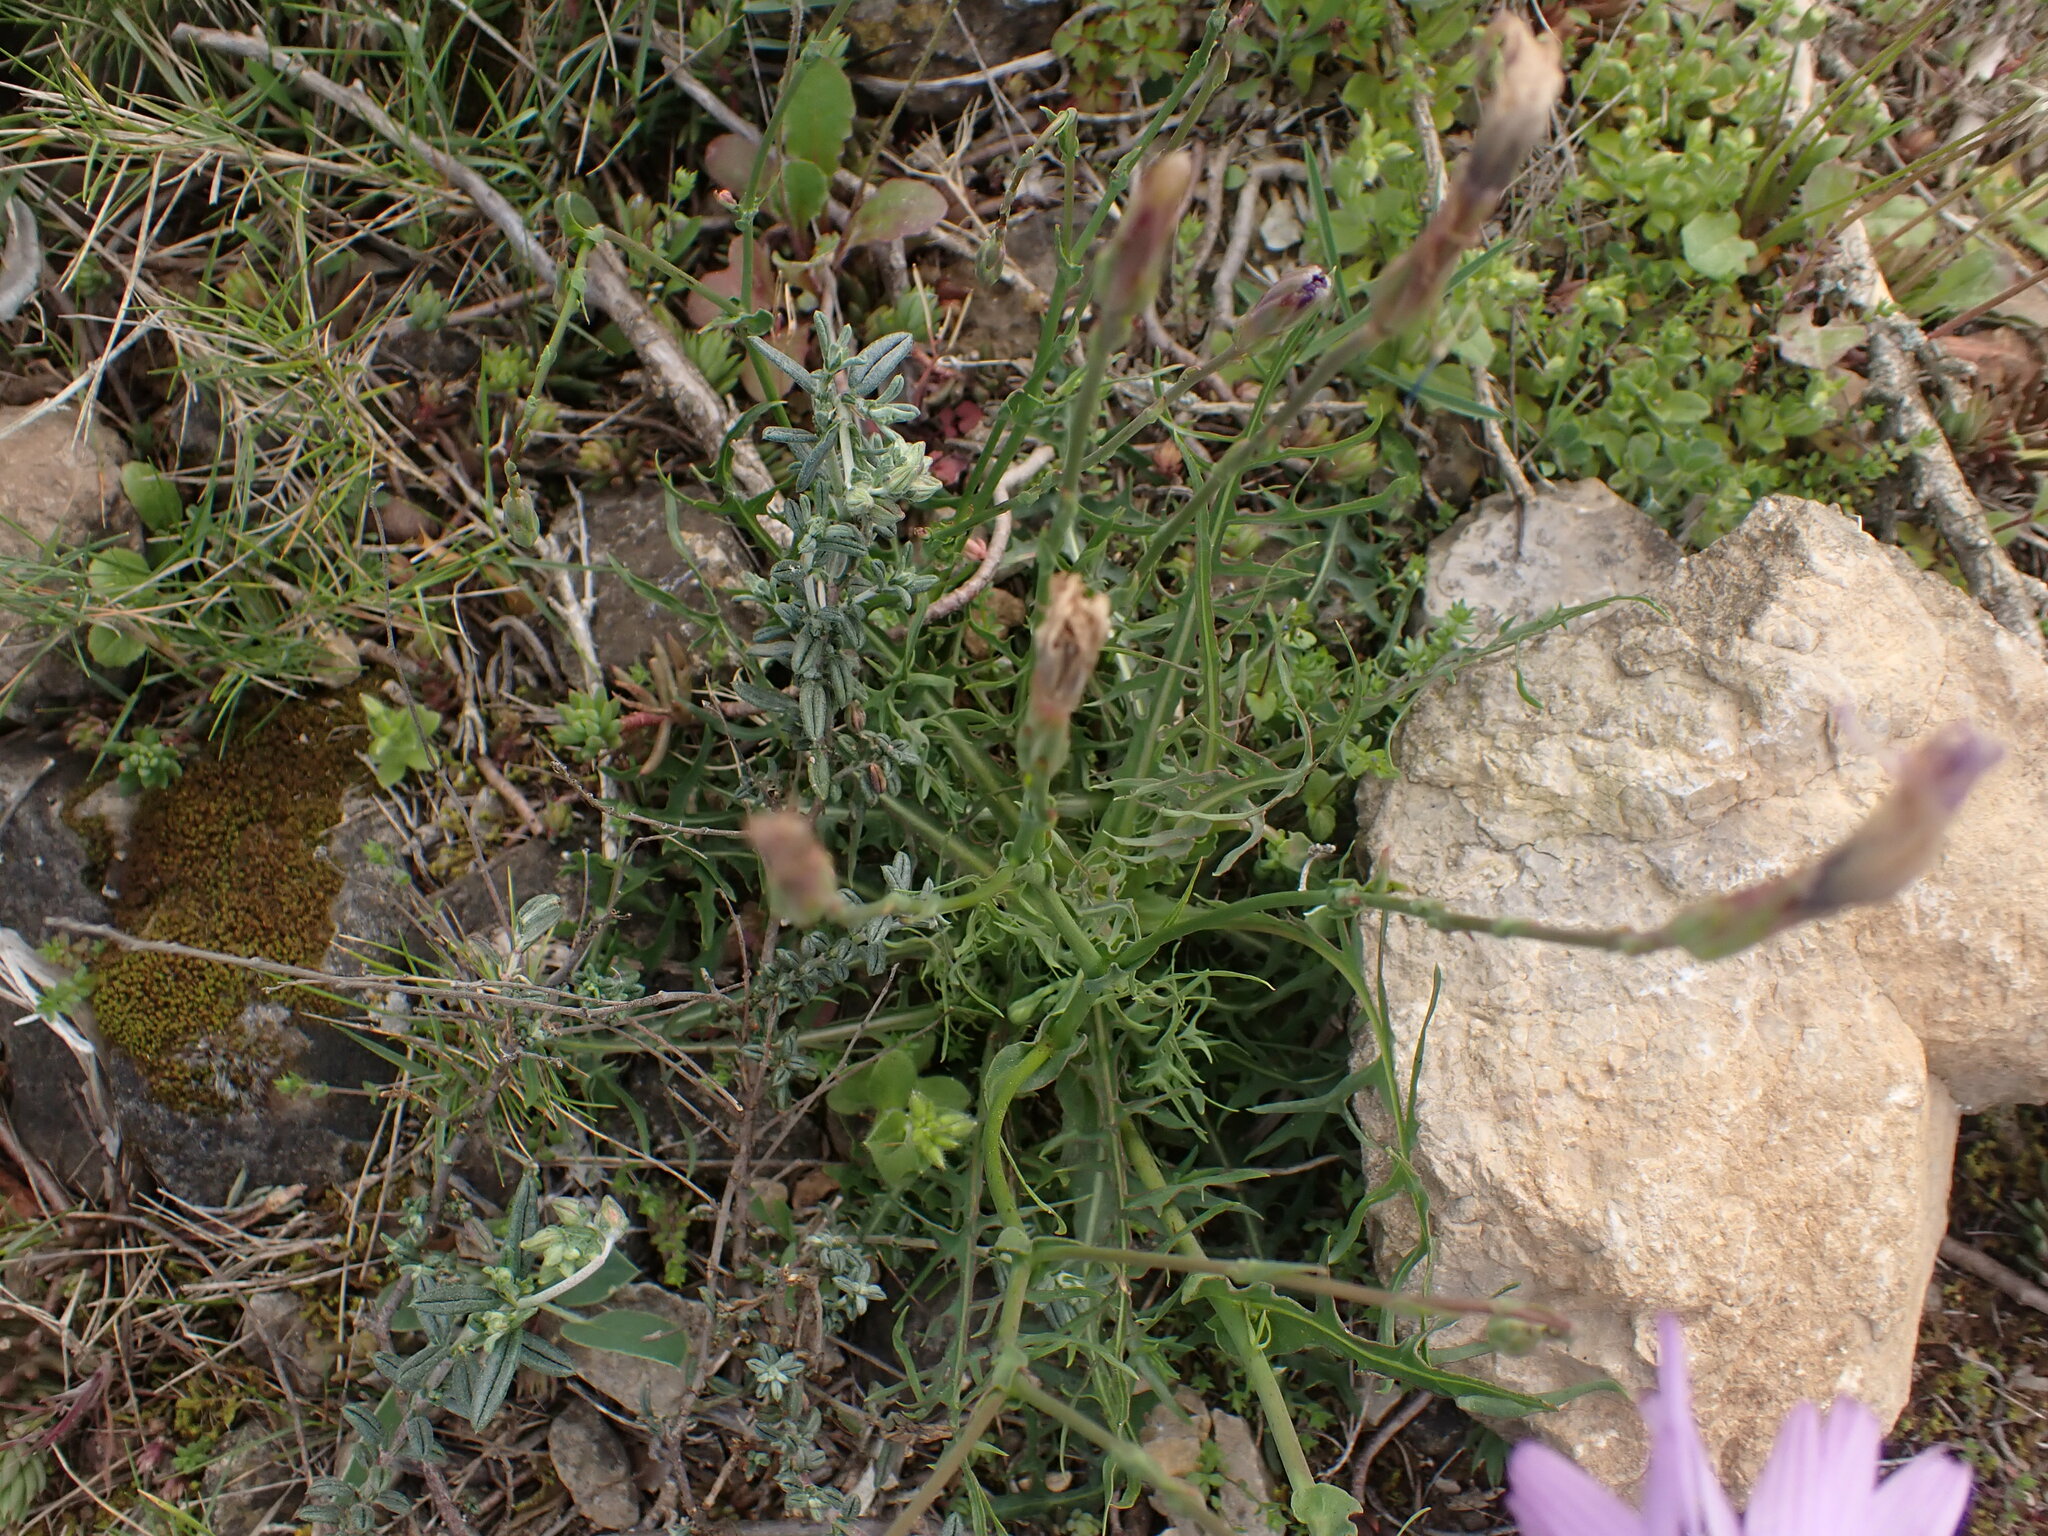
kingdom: Plantae
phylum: Tracheophyta
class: Magnoliopsida
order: Asterales
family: Asteraceae
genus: Lactuca
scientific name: Lactuca perennis
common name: Mountain lettuce
